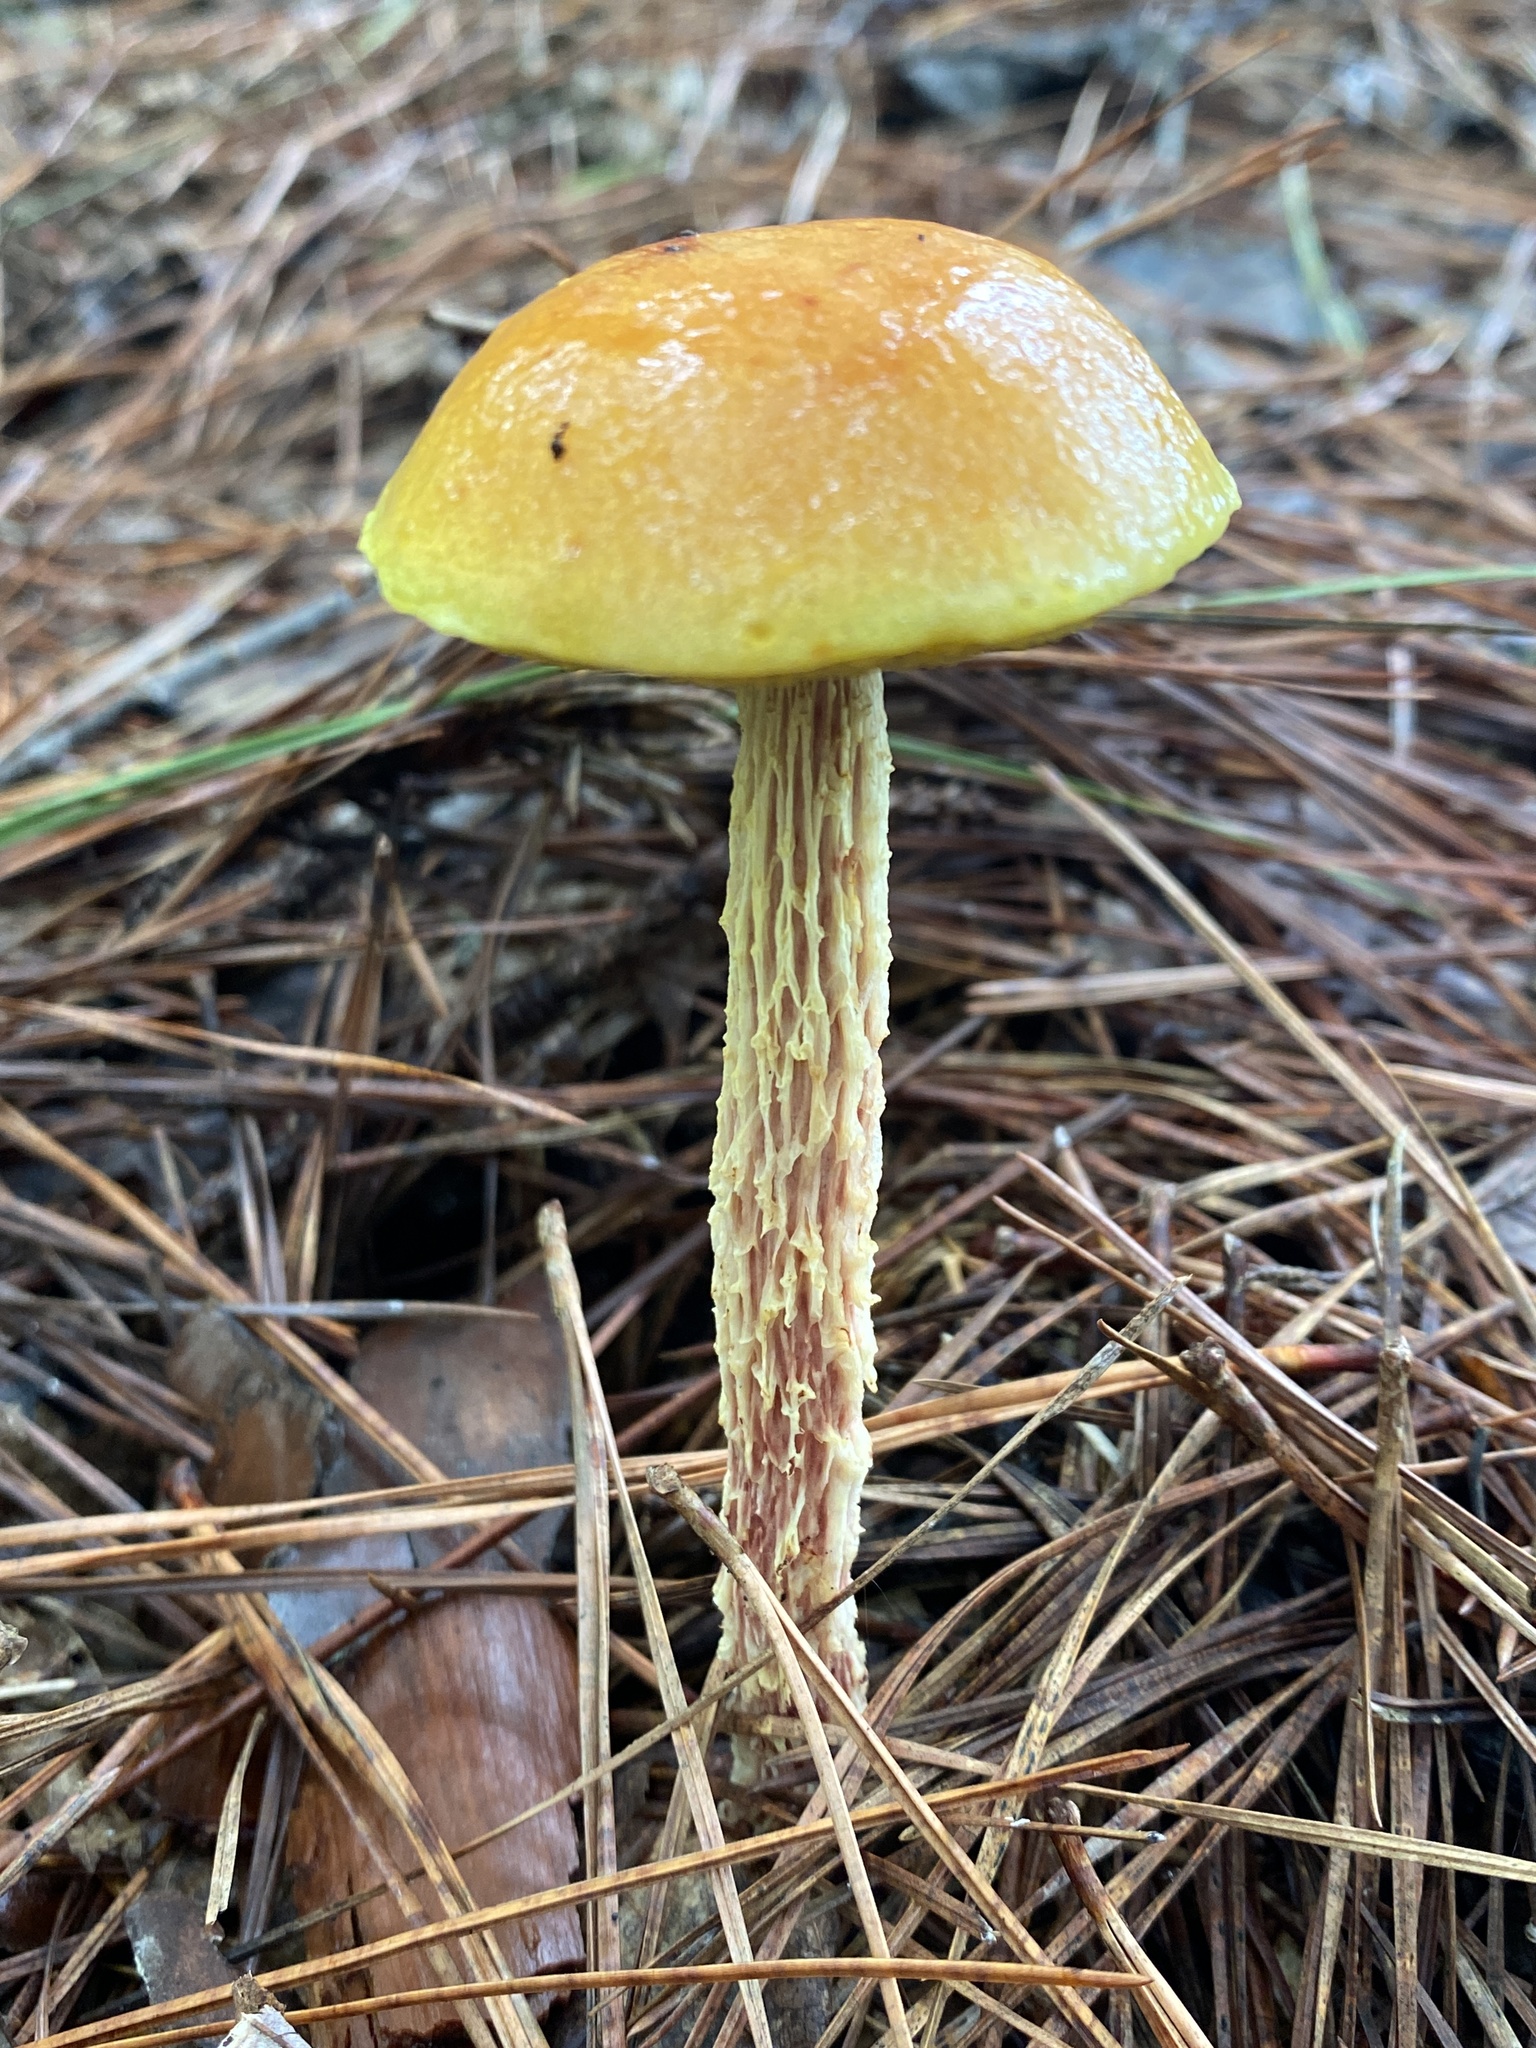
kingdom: Fungi
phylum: Basidiomycota
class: Agaricomycetes
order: Boletales
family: Boletaceae
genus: Aureoboletus
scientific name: Aureoboletus betula
